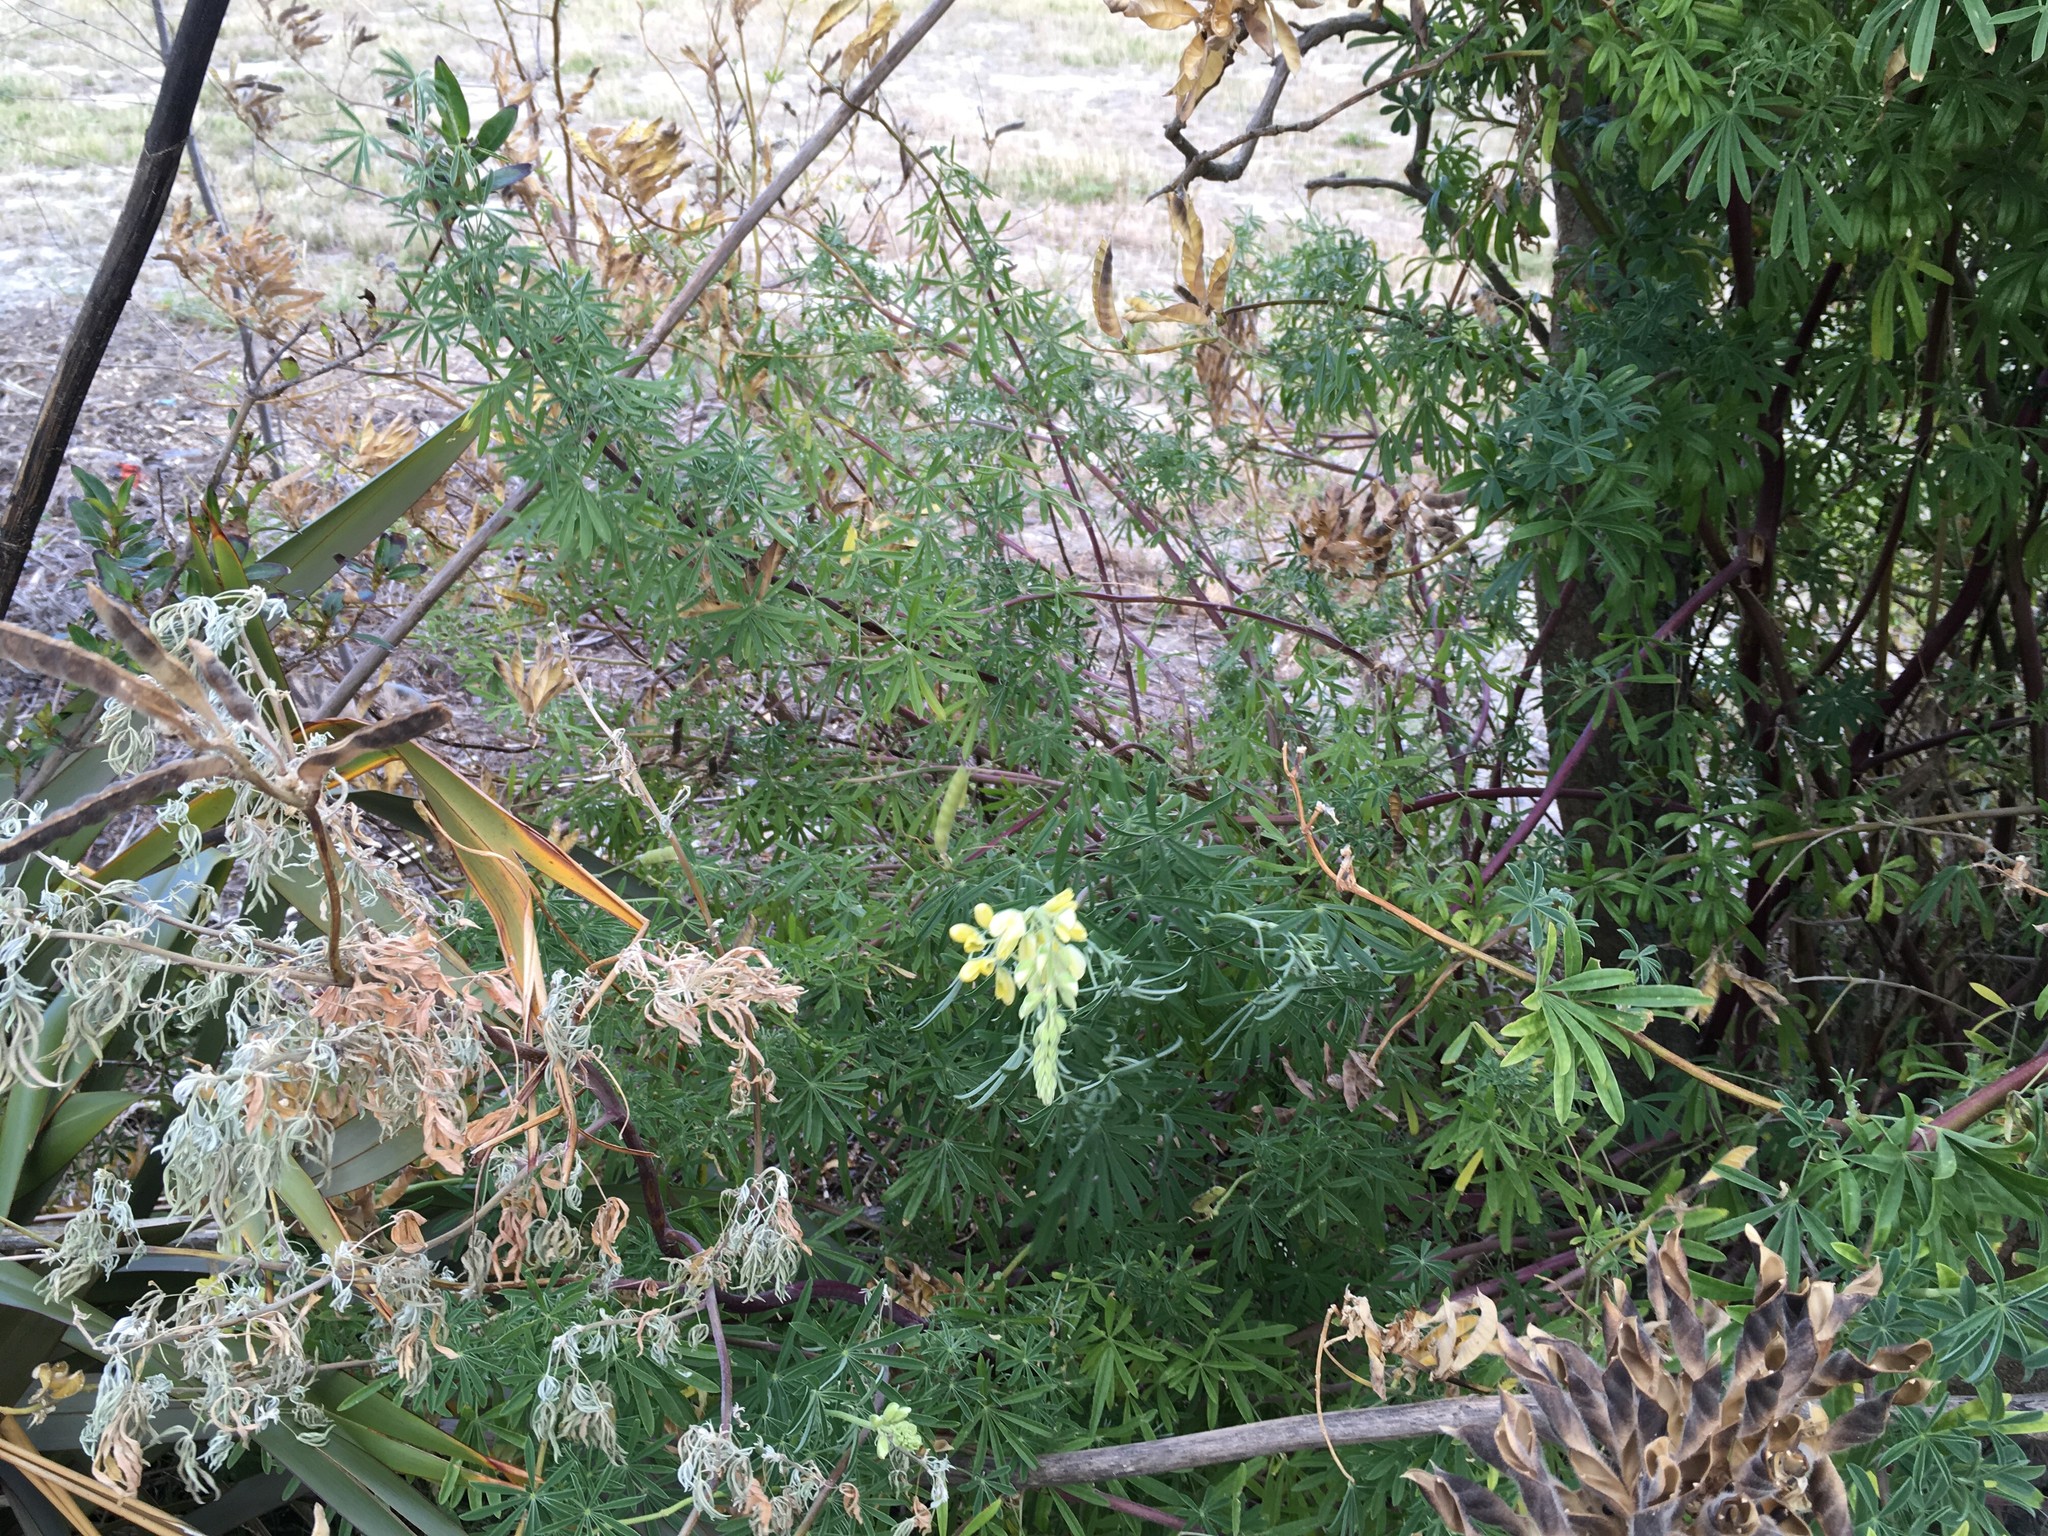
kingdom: Plantae
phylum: Tracheophyta
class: Magnoliopsida
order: Fabales
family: Fabaceae
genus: Lupinus
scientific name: Lupinus arboreus
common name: Yellow bush lupine
